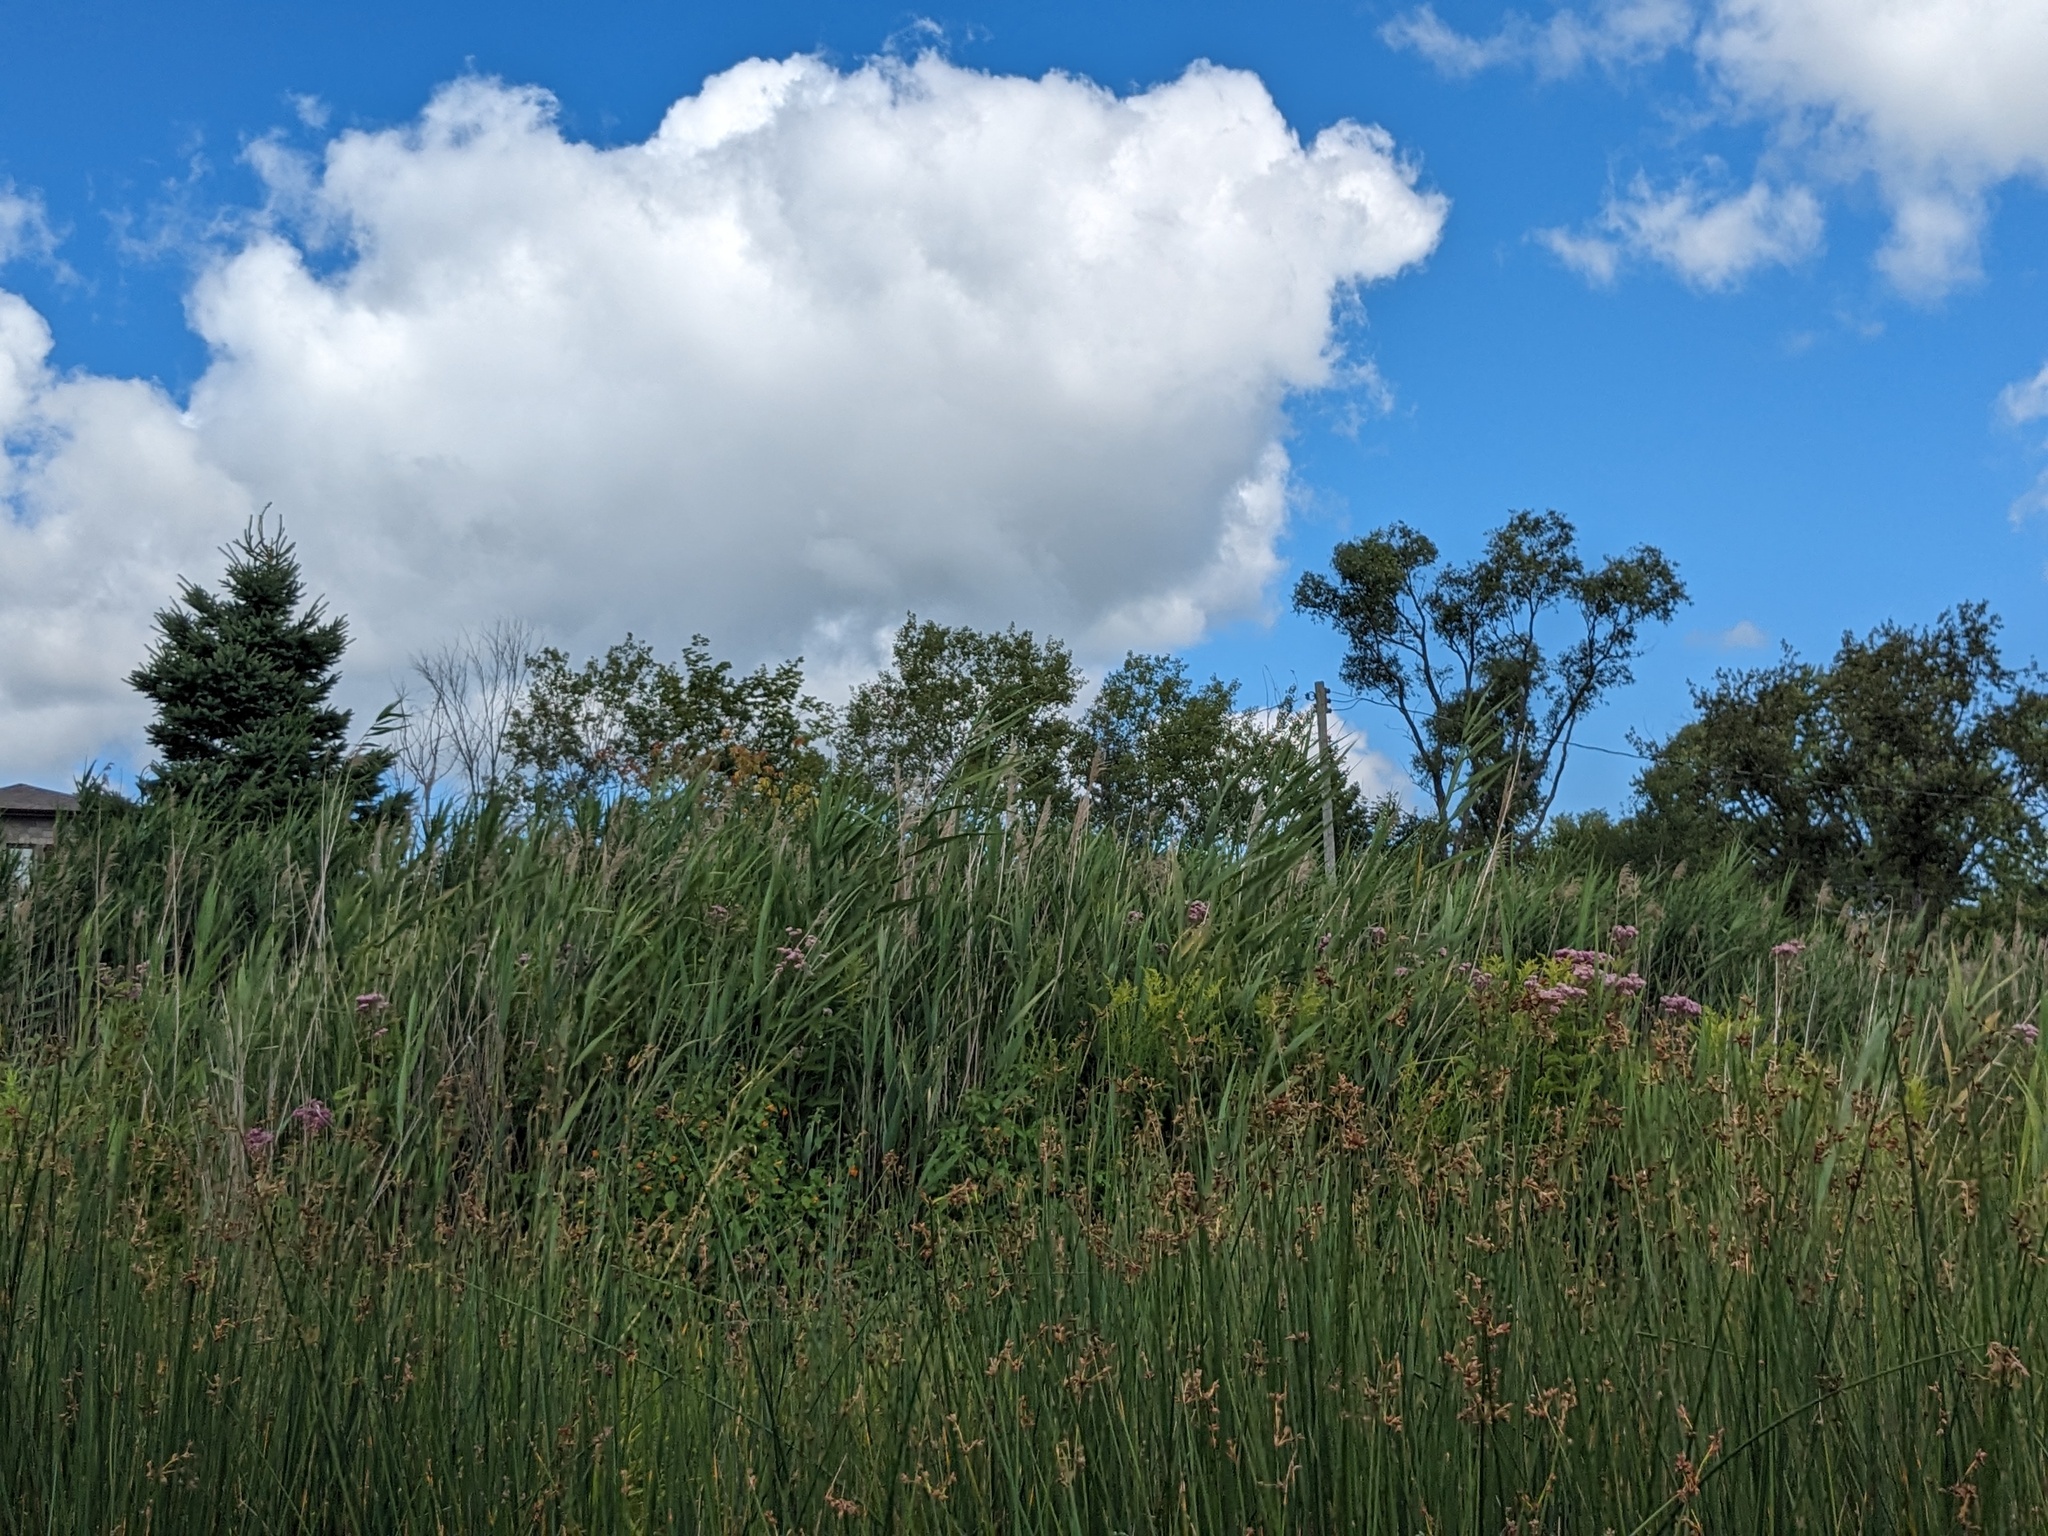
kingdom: Plantae
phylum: Tracheophyta
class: Liliopsida
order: Poales
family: Poaceae
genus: Phragmites
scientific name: Phragmites australis
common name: Common reed
